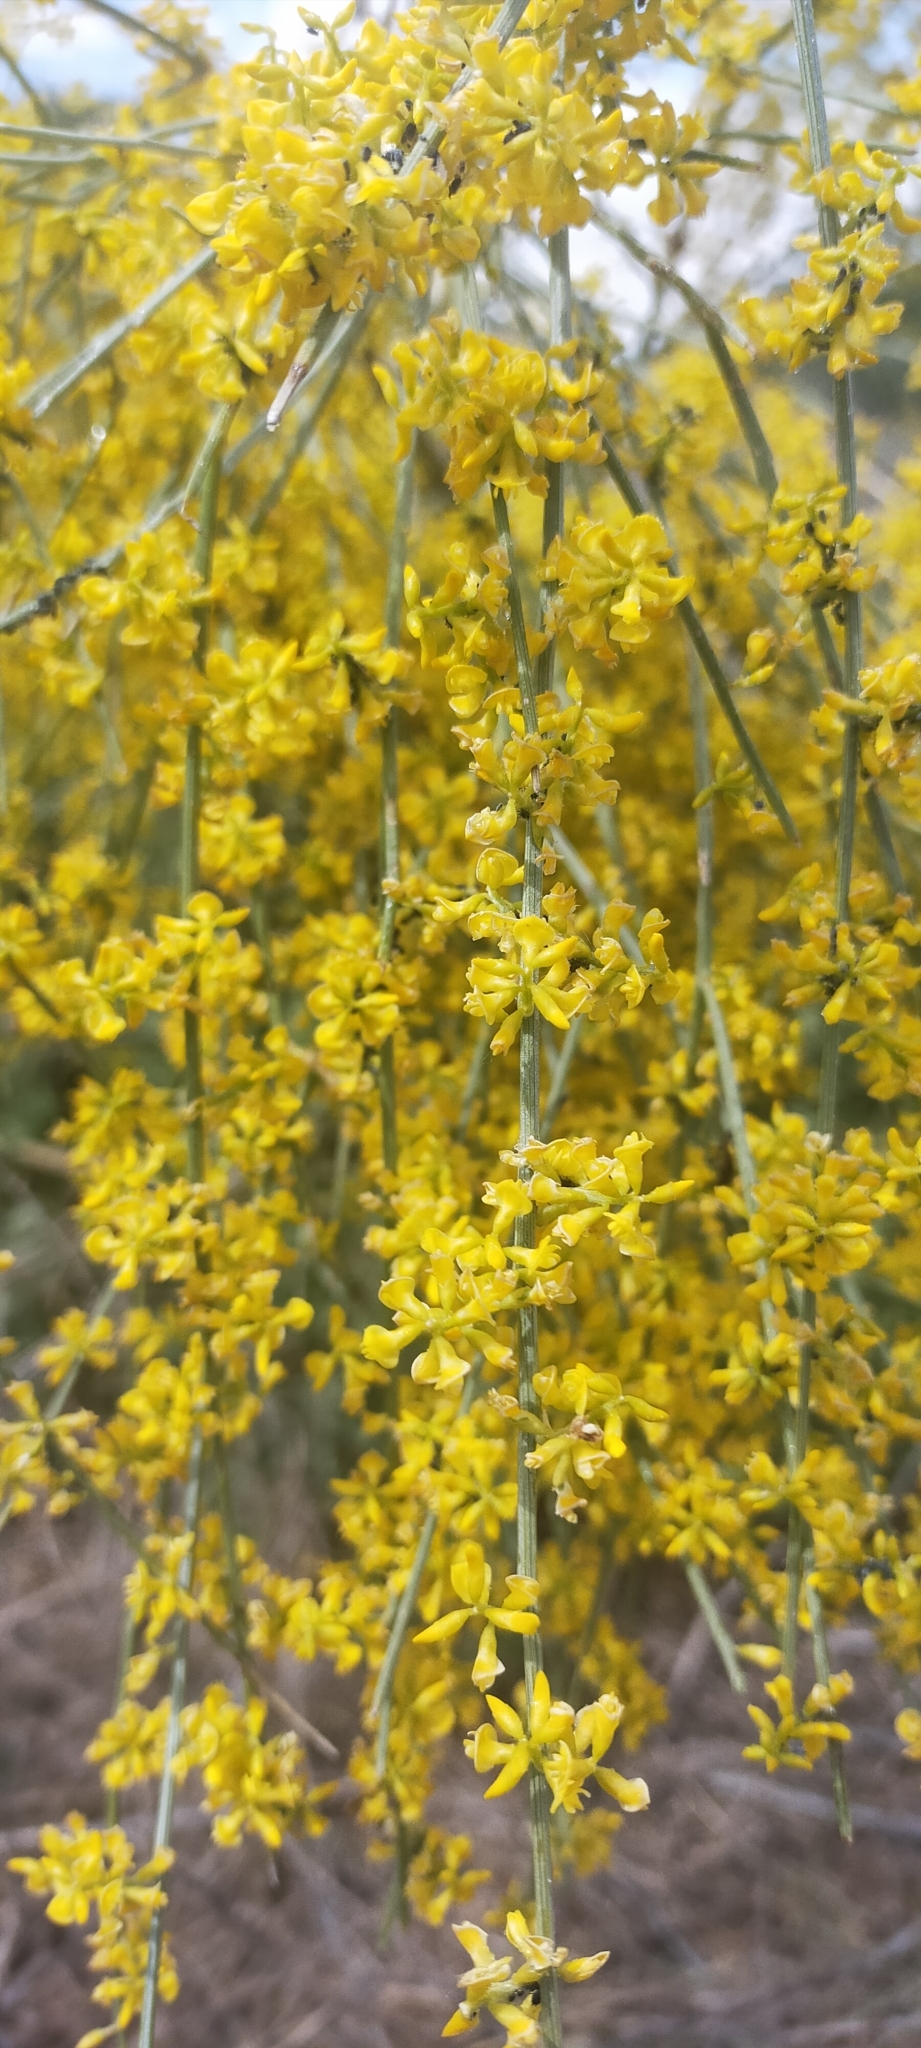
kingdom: Plantae
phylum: Tracheophyta
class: Magnoliopsida
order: Fabales
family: Fabaceae
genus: Retama
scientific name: Retama sphaerocarpa
